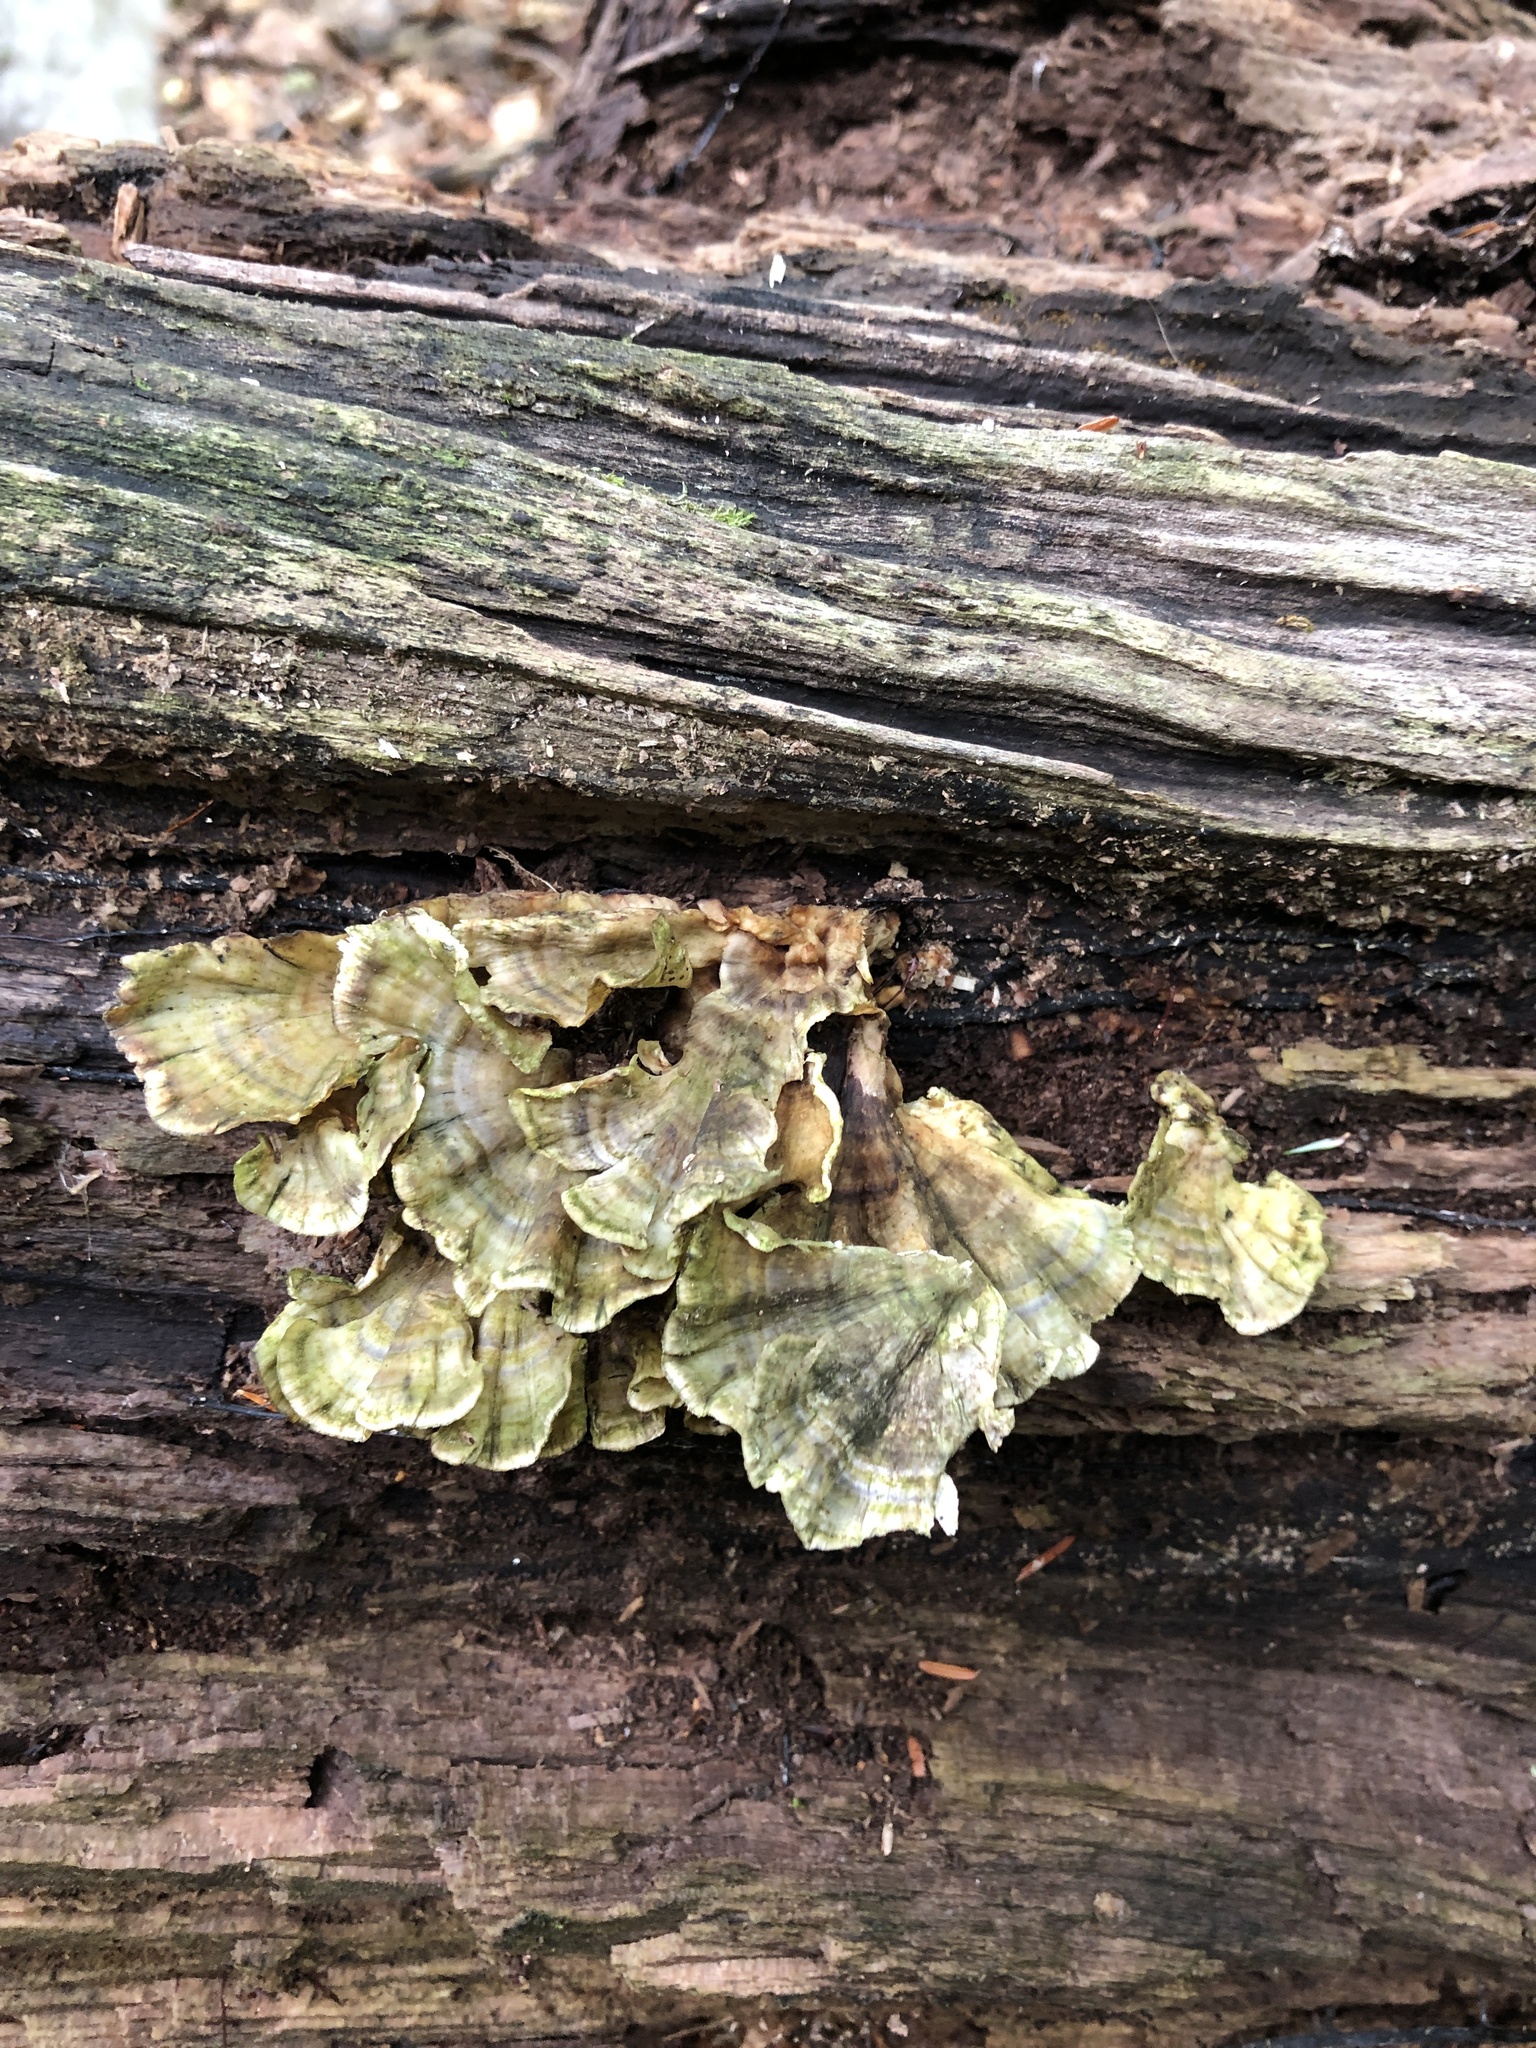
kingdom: Fungi
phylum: Basidiomycota
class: Agaricomycetes
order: Polyporales
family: Polyporaceae
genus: Trametes
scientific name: Trametes versicolor
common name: Turkeytail
